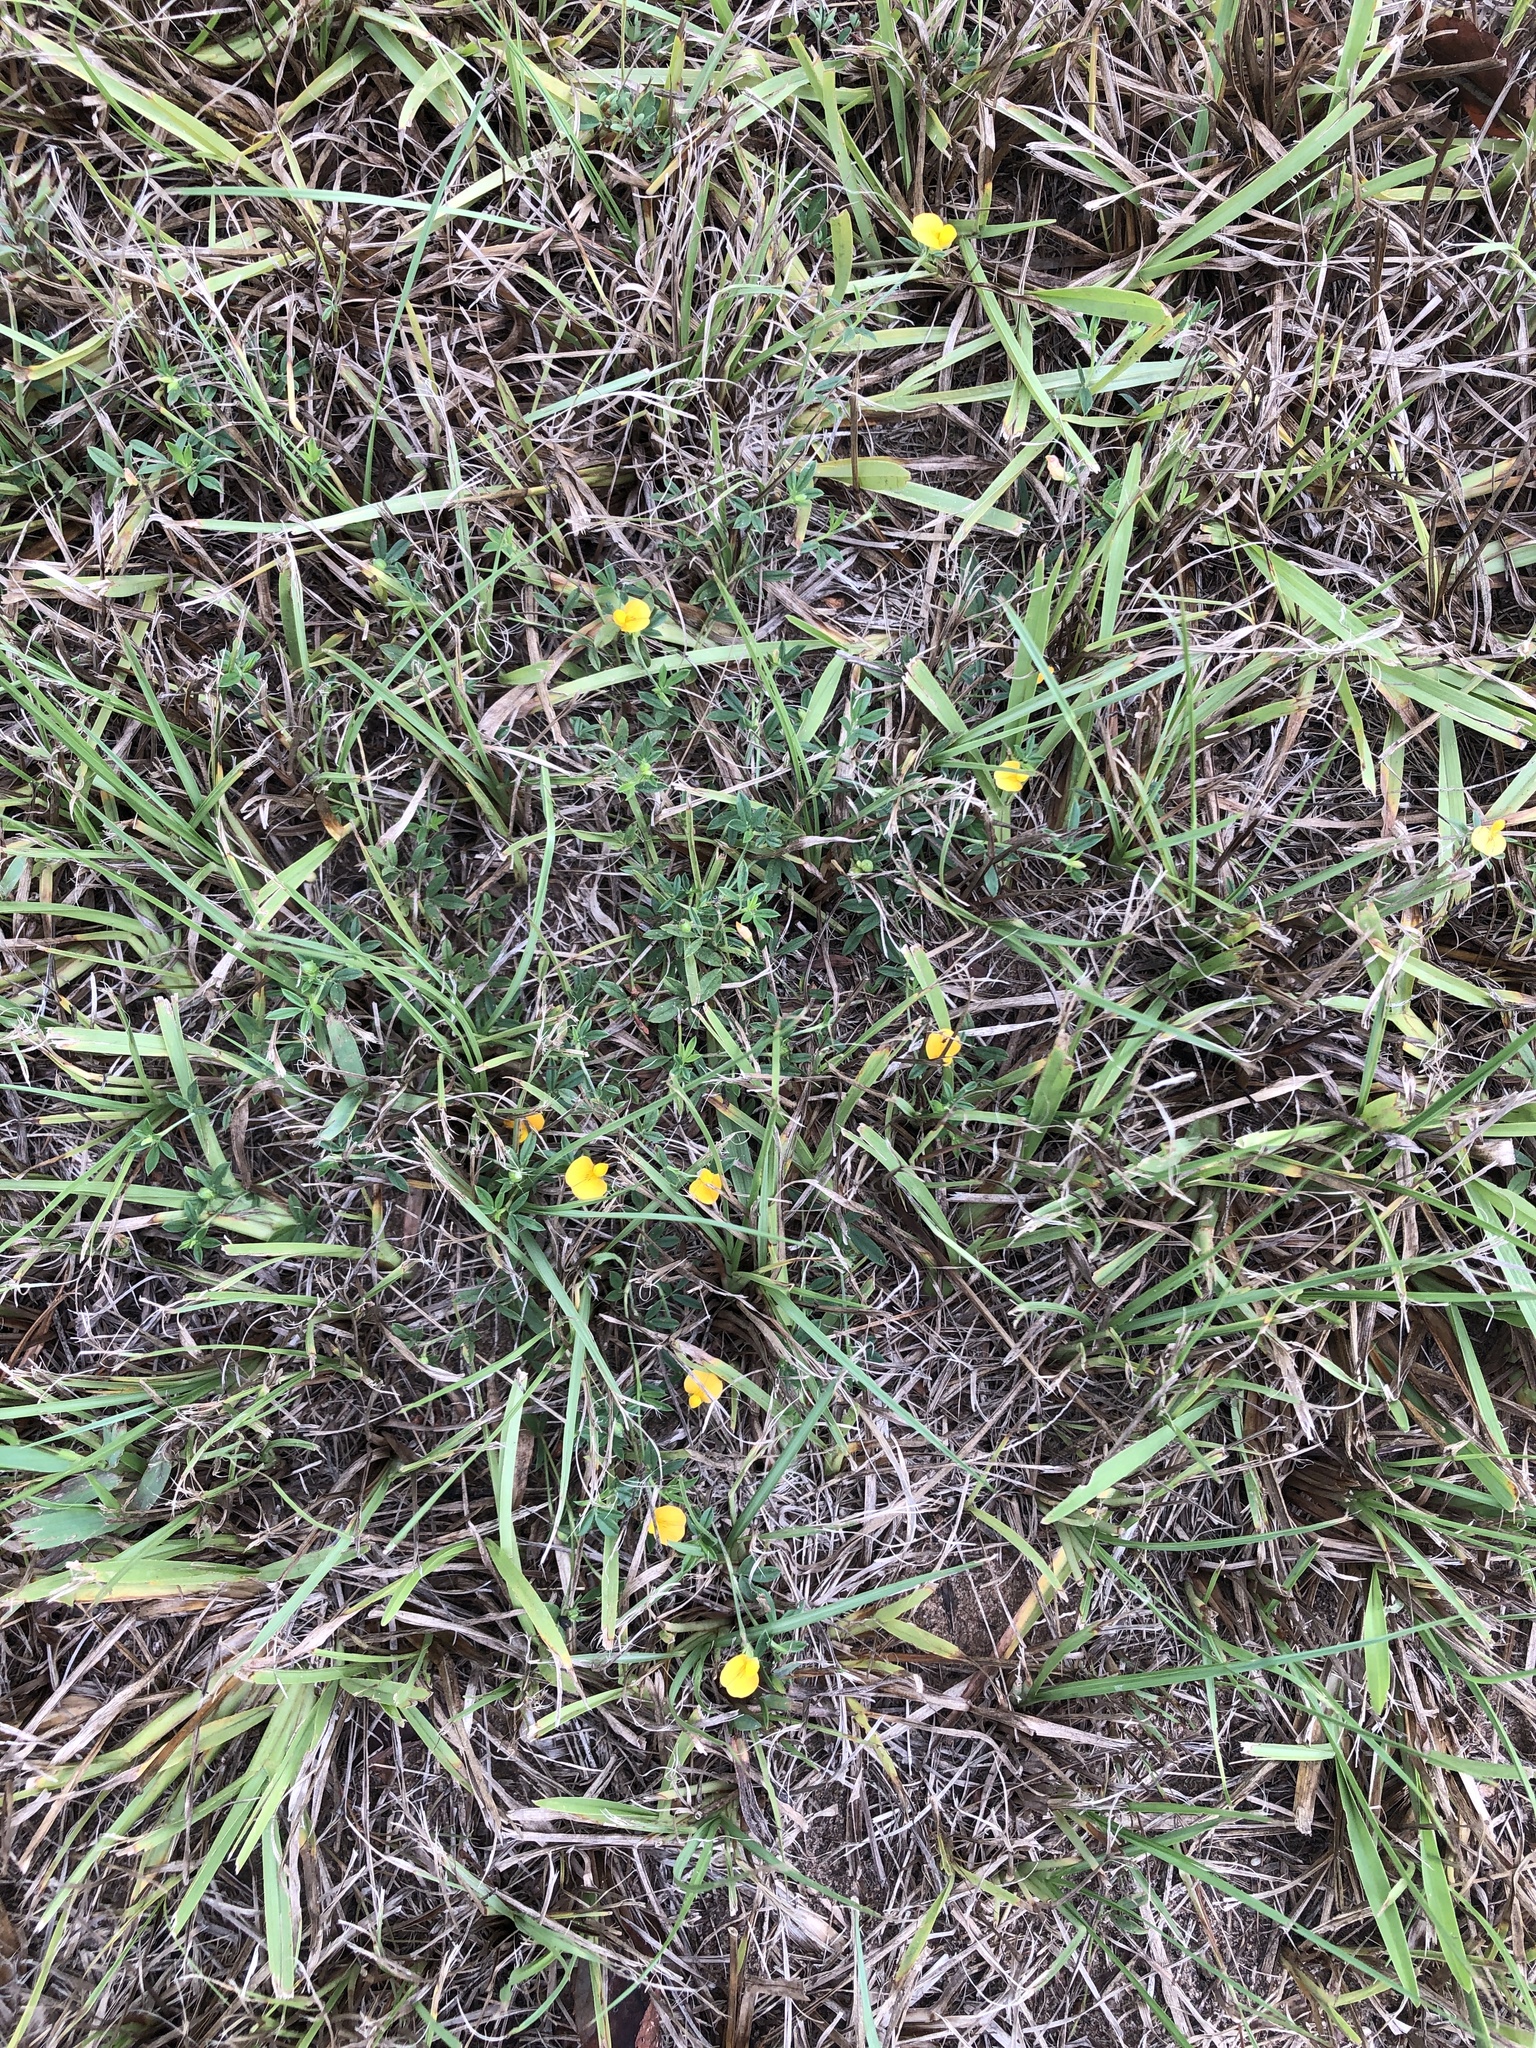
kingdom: Plantae
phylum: Tracheophyta
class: Magnoliopsida
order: Fabales
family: Fabaceae
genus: Stylosanthes
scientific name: Stylosanthes biflora
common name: Two-flower pencil-flower
